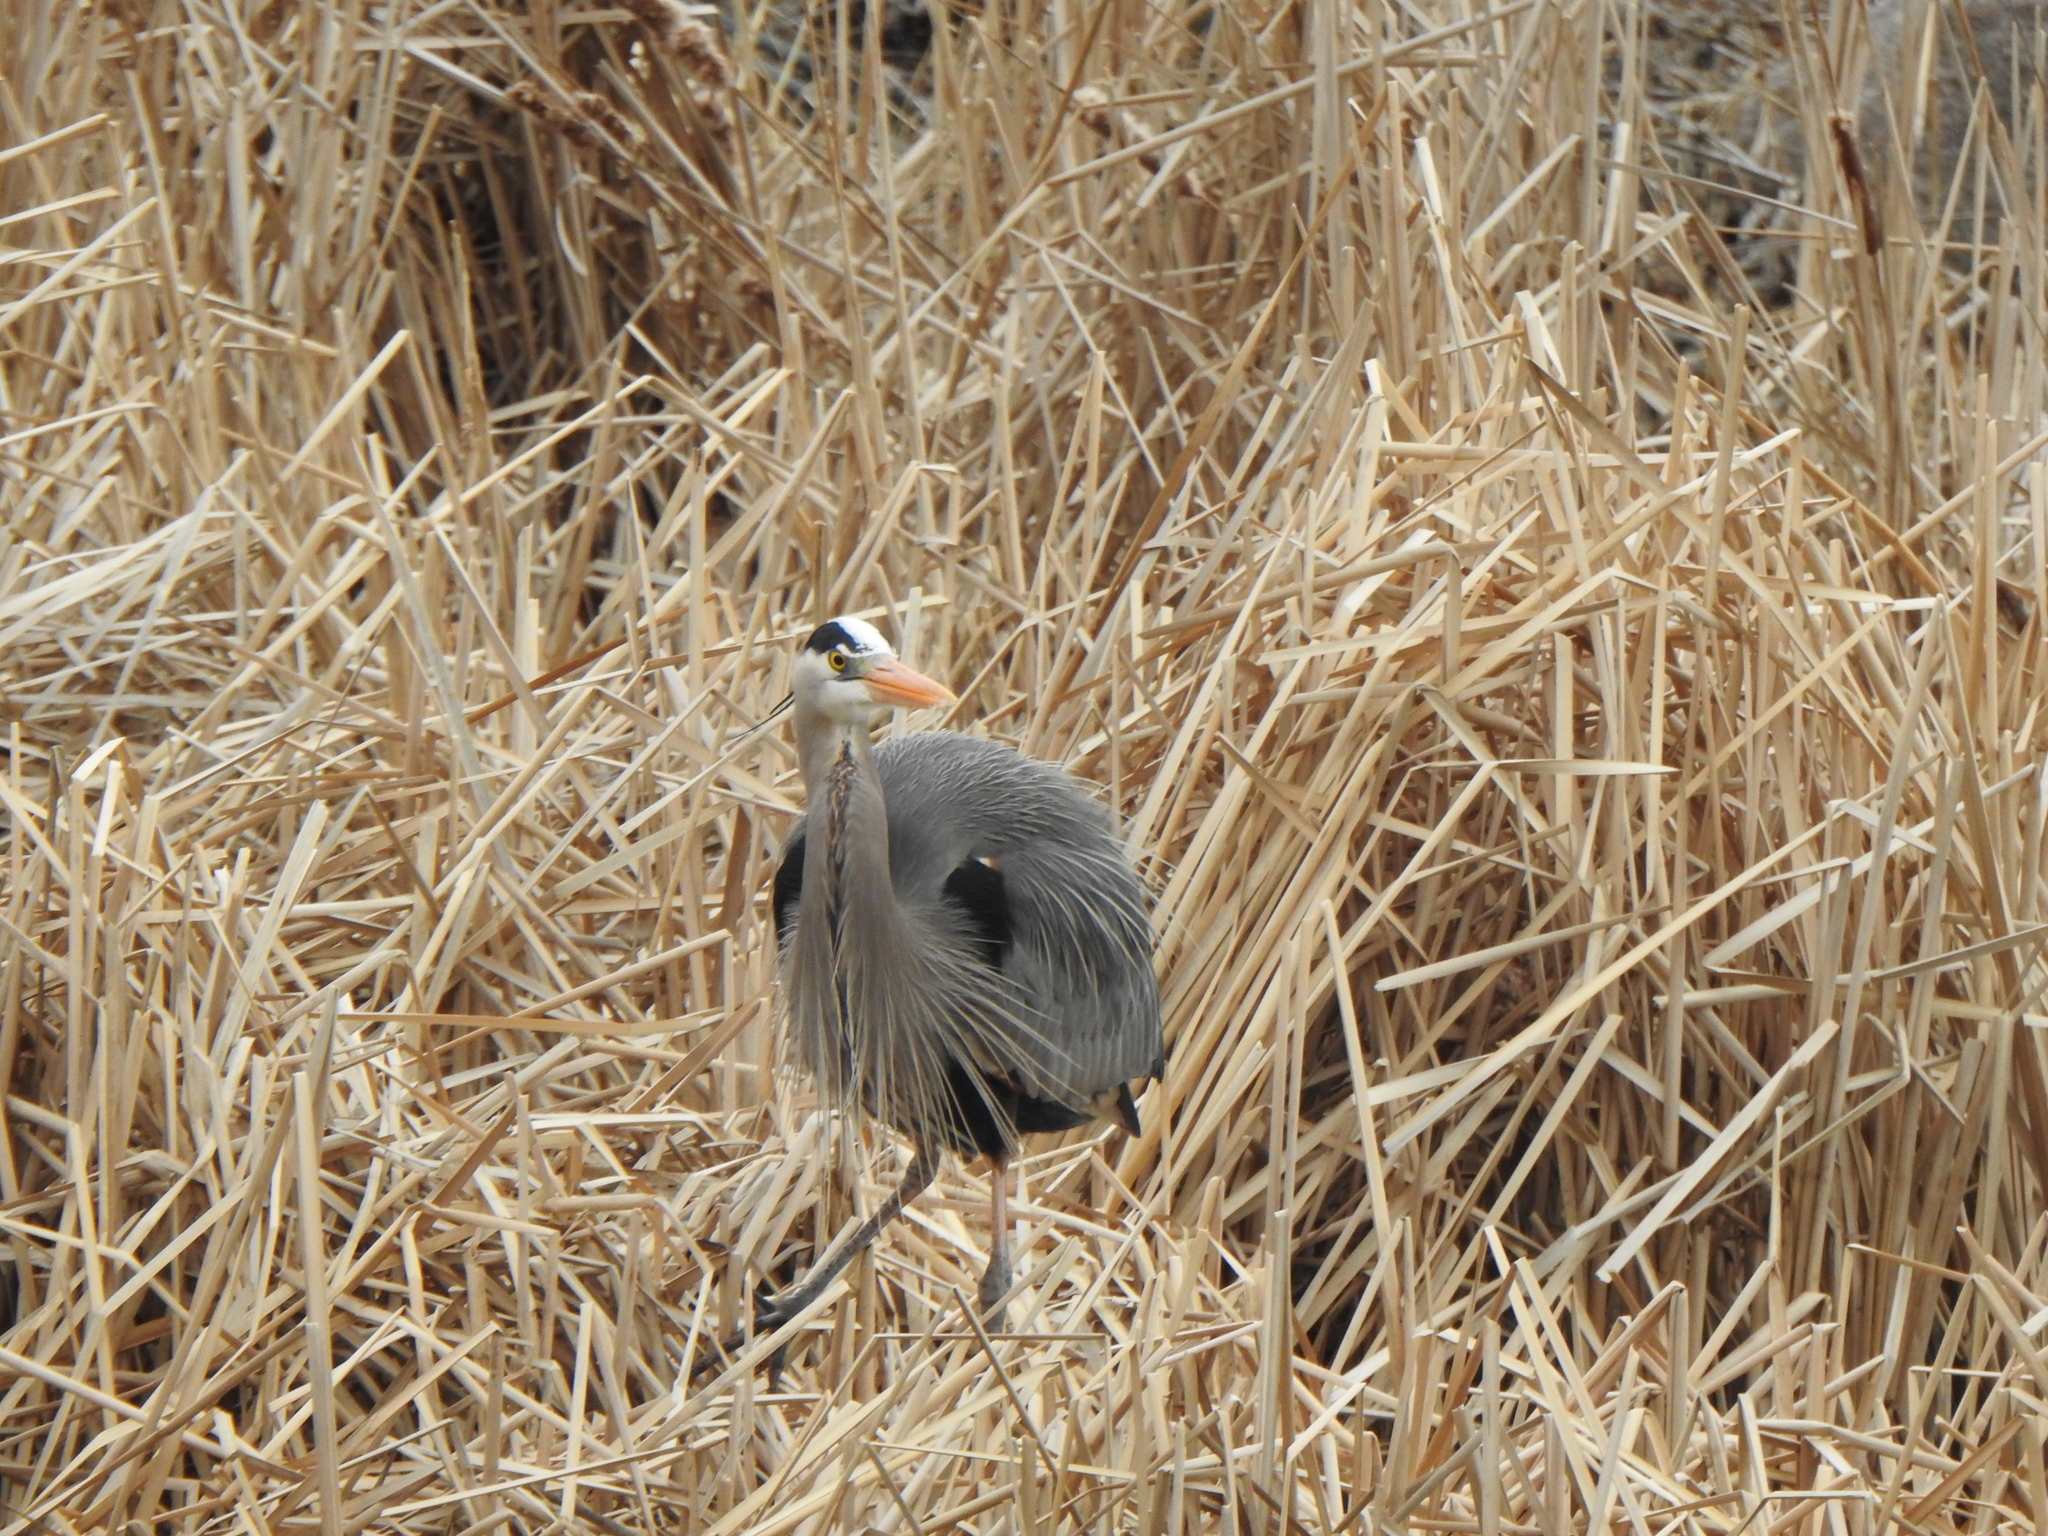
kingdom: Animalia
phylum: Chordata
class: Aves
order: Pelecaniformes
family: Ardeidae
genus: Ardea
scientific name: Ardea herodias
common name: Great blue heron
